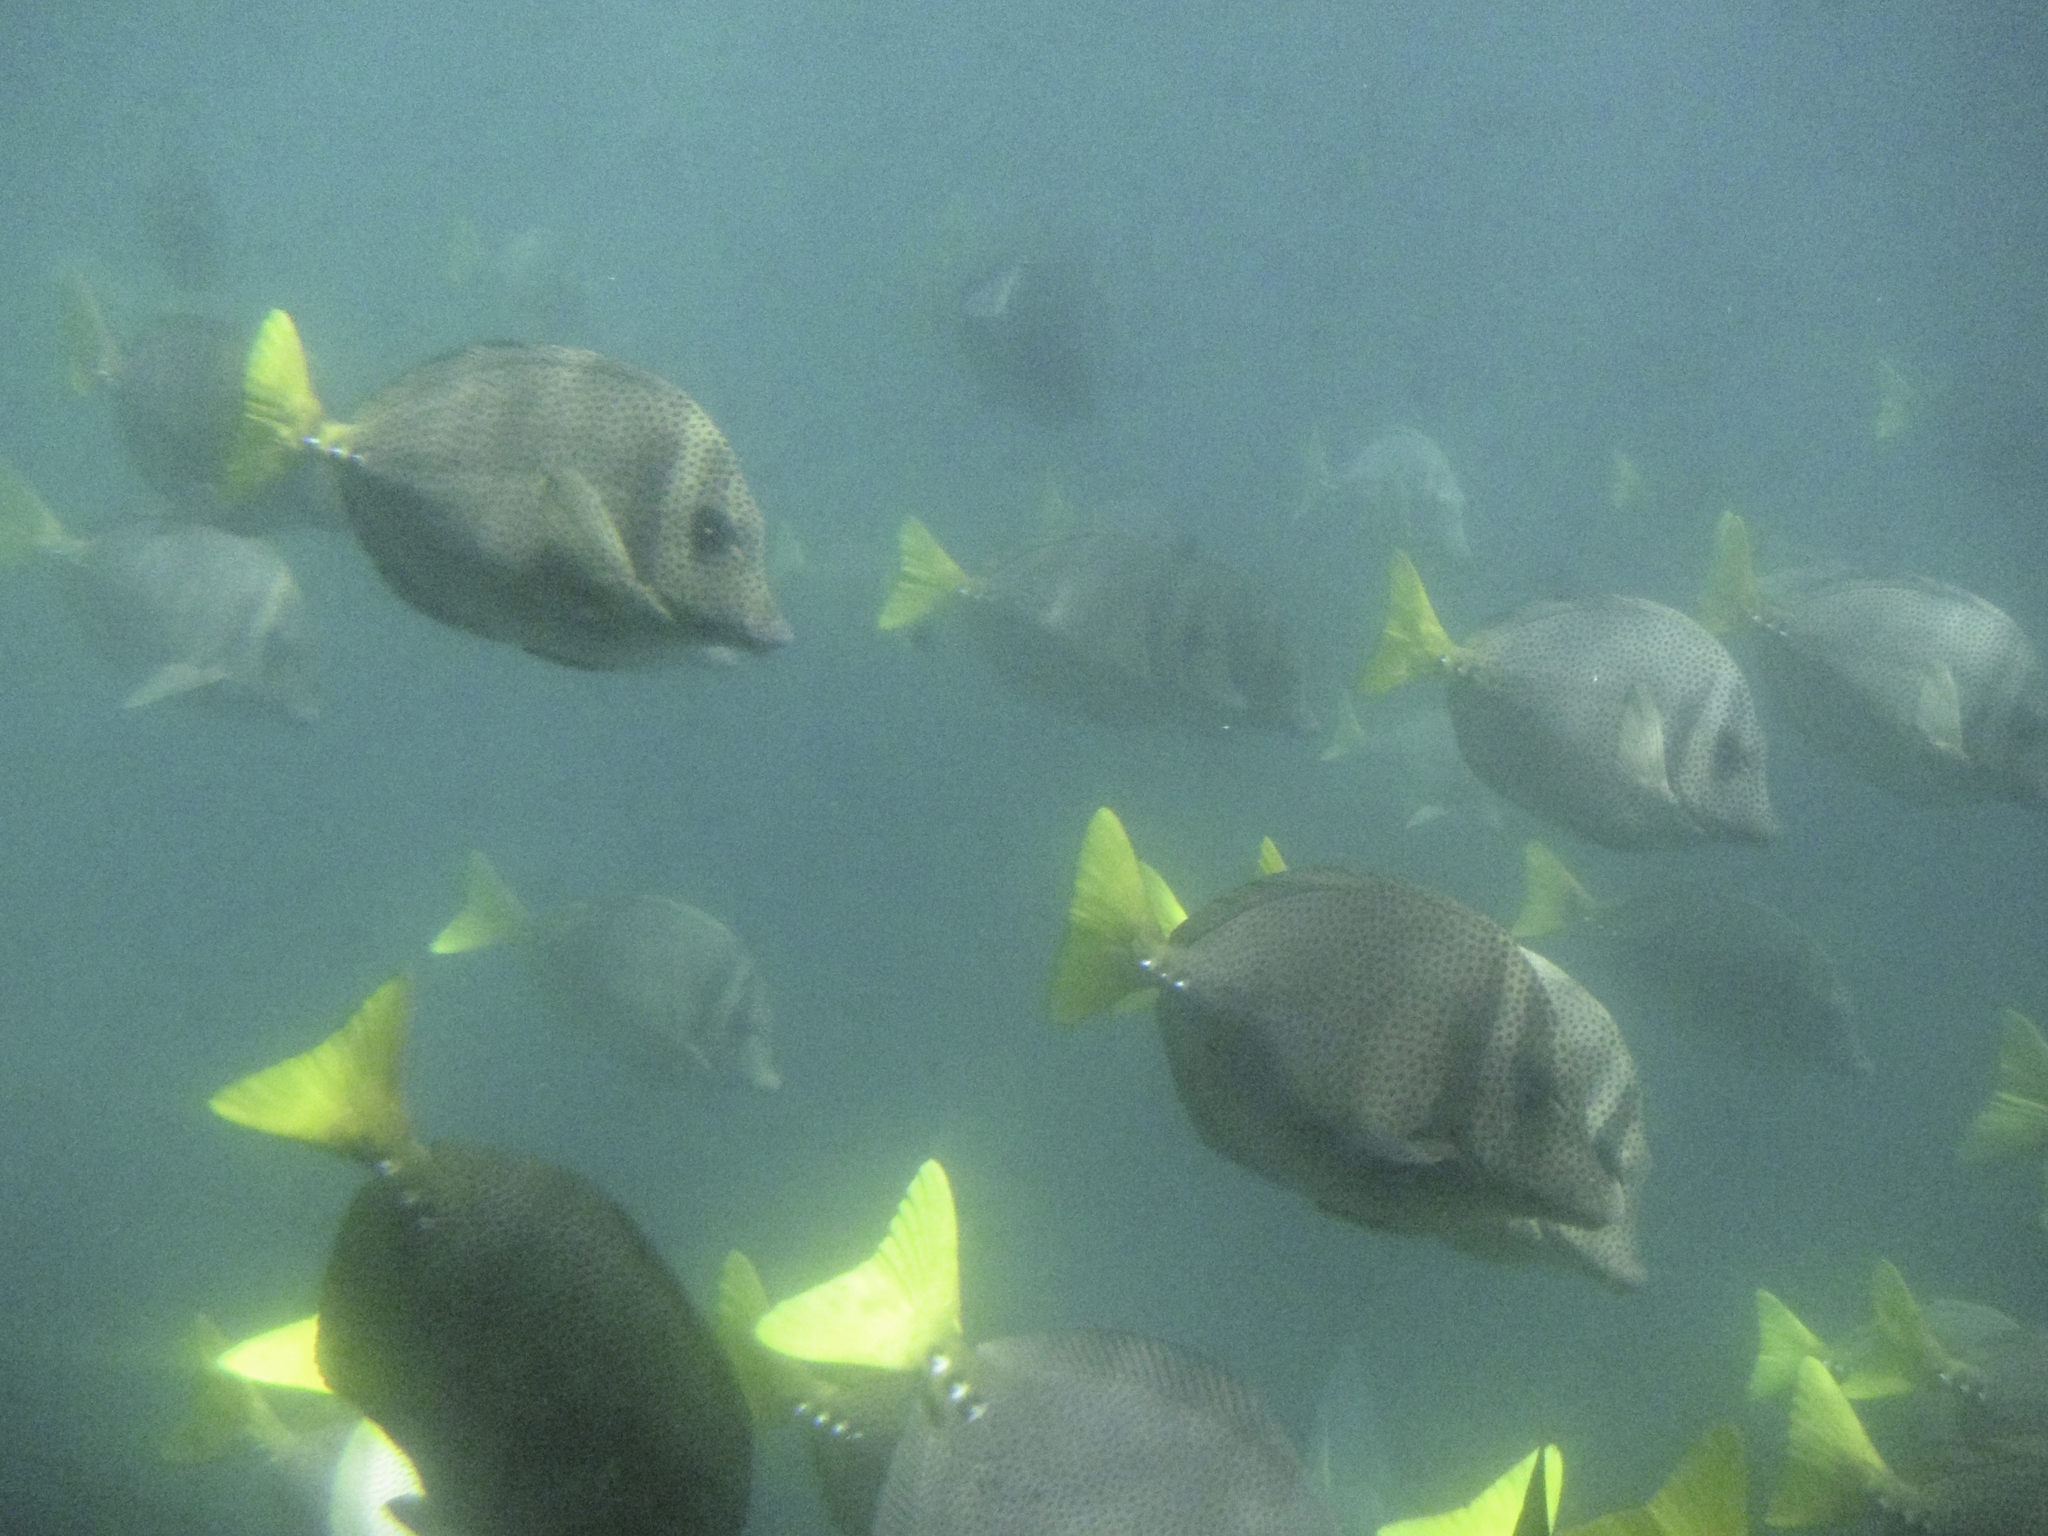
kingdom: Animalia
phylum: Chordata
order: Perciformes
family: Acanthuridae
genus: Prionurus
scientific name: Prionurus laticlavius
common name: Razor surgeonfish
